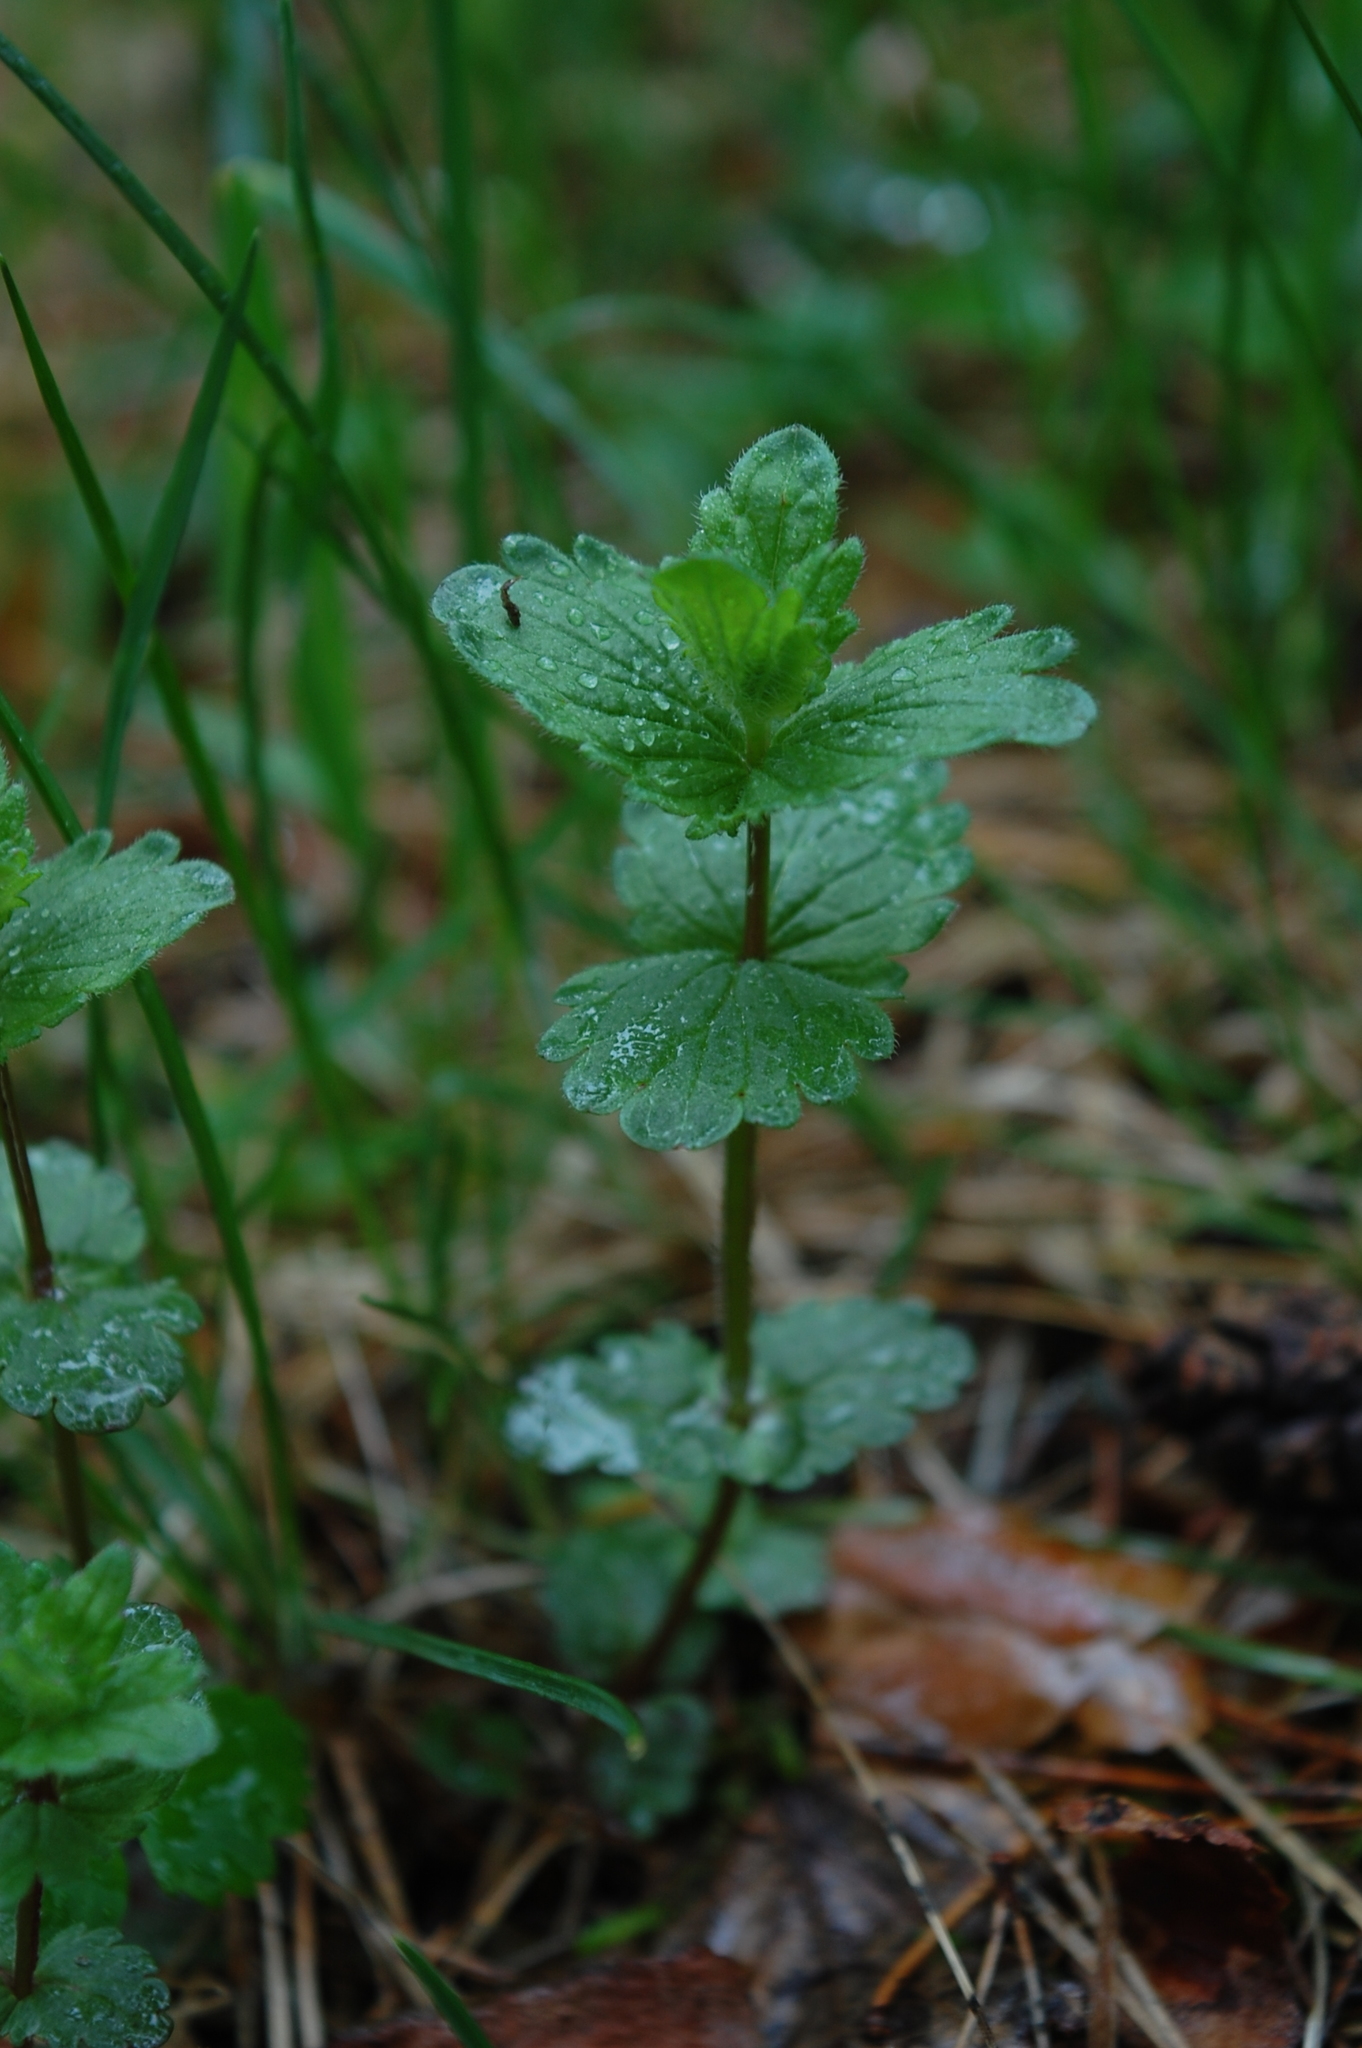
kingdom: Plantae
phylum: Tracheophyta
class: Magnoliopsida
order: Lamiales
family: Plantaginaceae
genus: Veronica
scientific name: Veronica chamaedrys
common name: Germander speedwell
